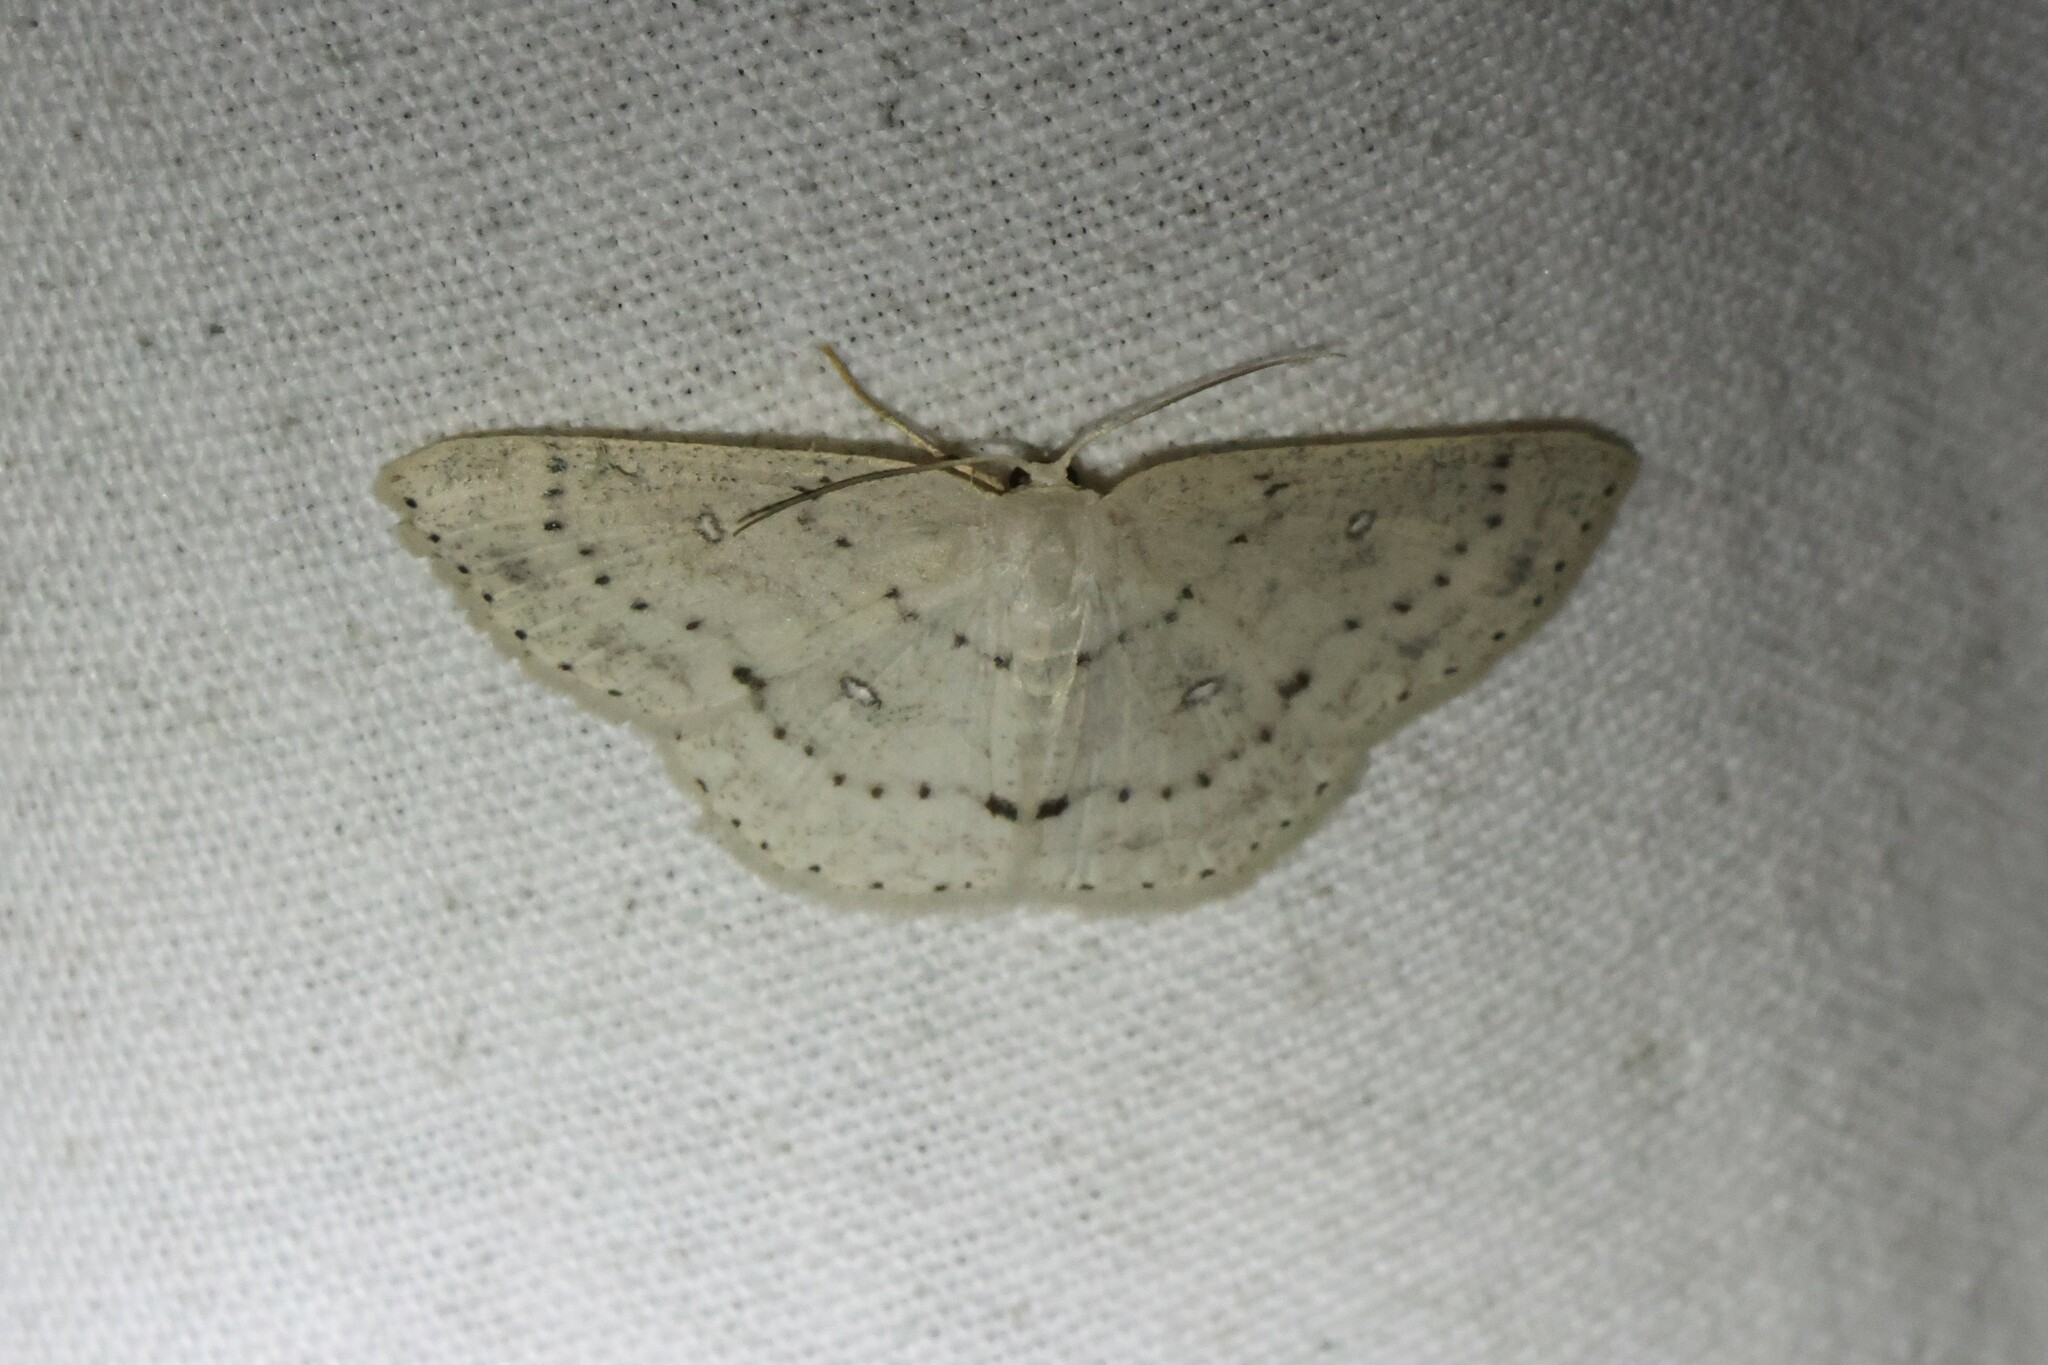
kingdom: Animalia
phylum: Arthropoda
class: Insecta
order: Lepidoptera
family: Geometridae
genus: Cyclophora
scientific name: Cyclophora pendulinaria
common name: Sweet fern geometer
